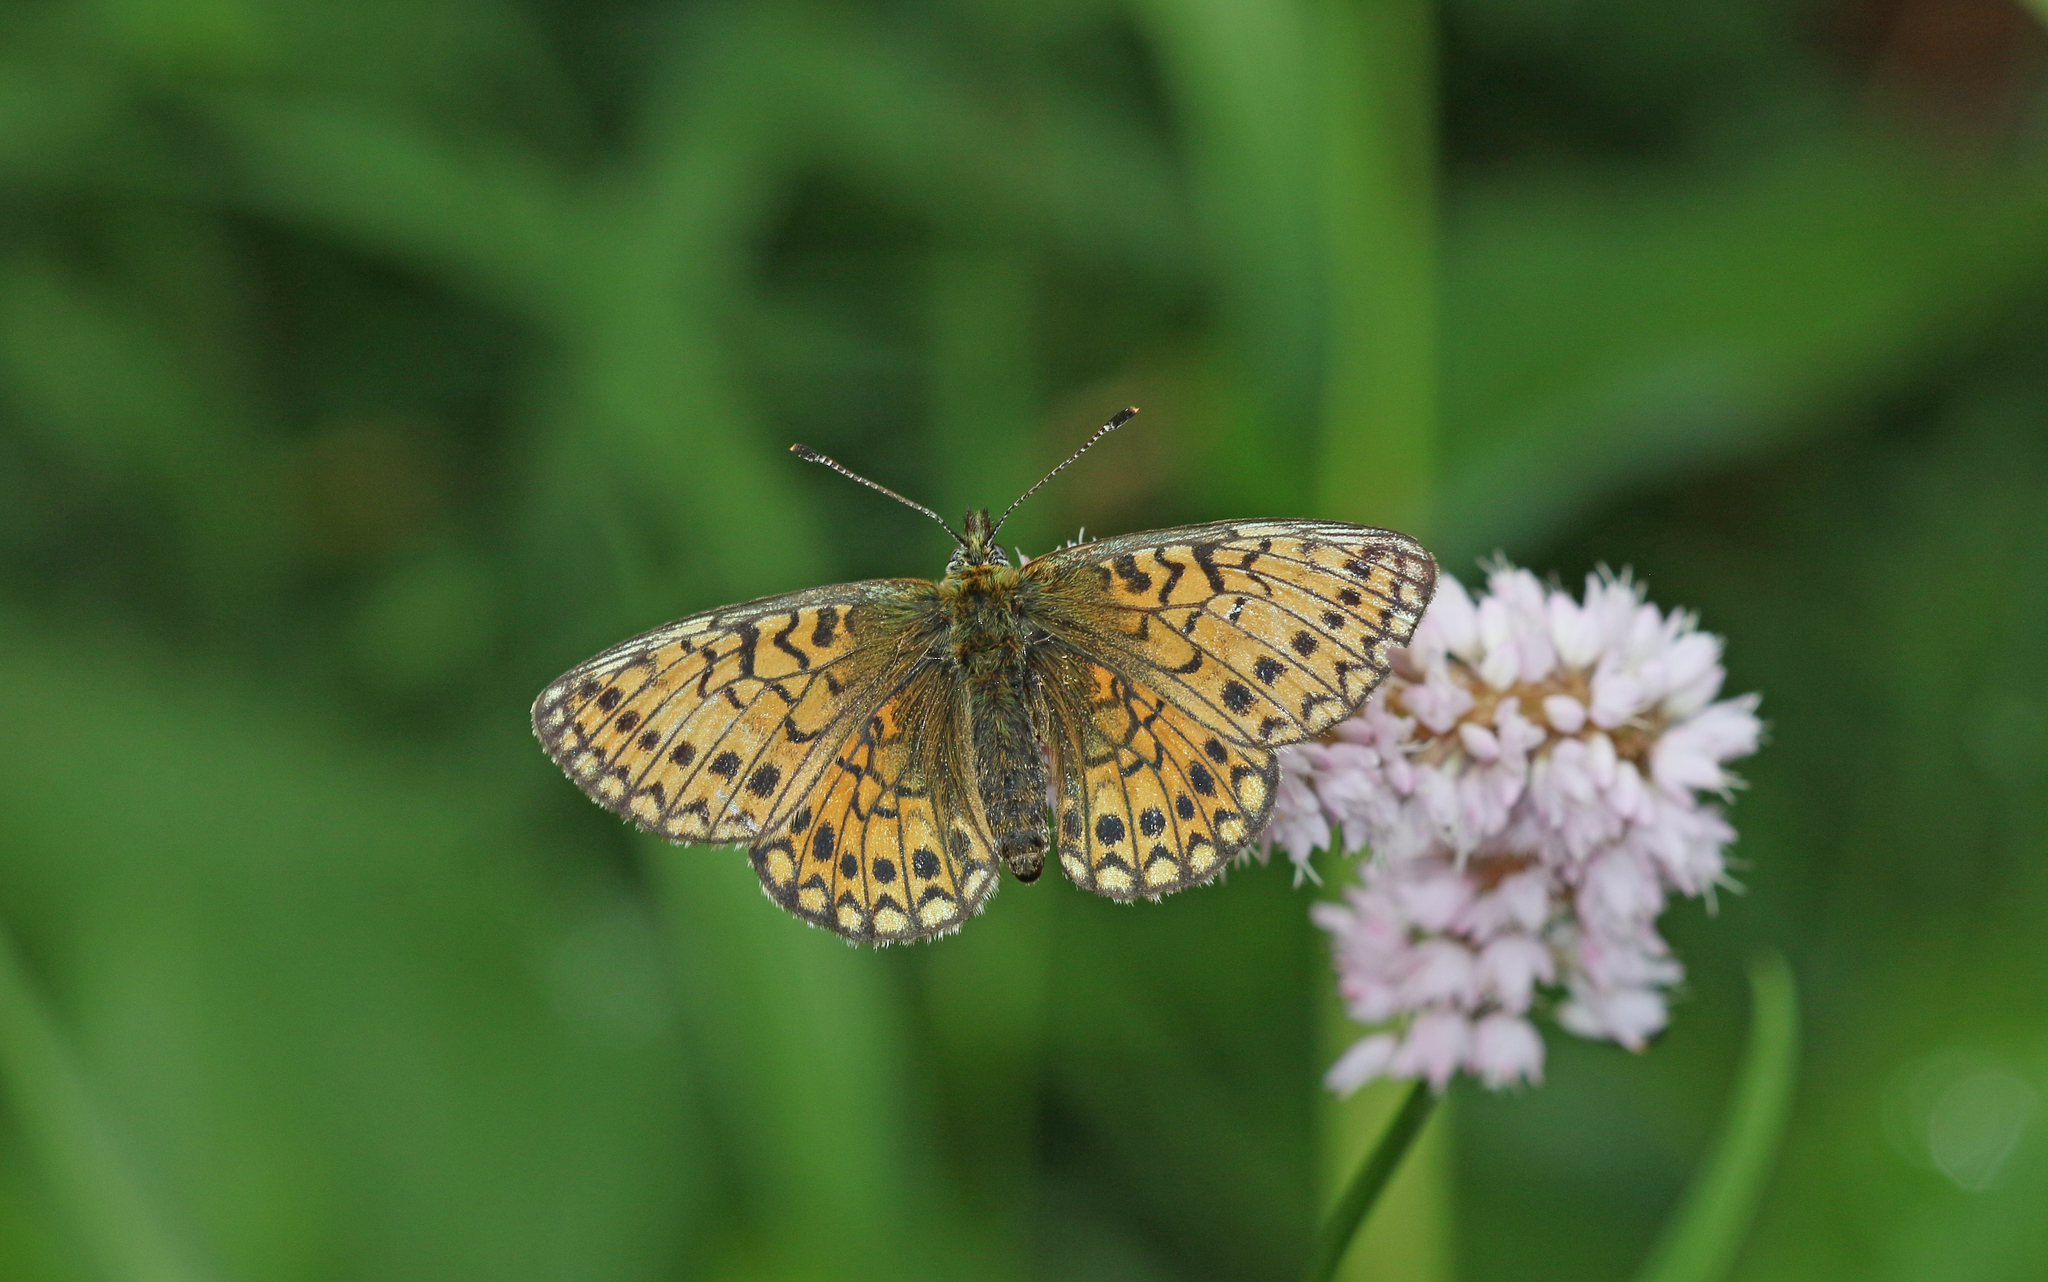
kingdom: Animalia
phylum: Arthropoda
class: Insecta
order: Lepidoptera
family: Nymphalidae
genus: Boloria
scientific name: Boloria eunomia
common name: Bog fritillary
